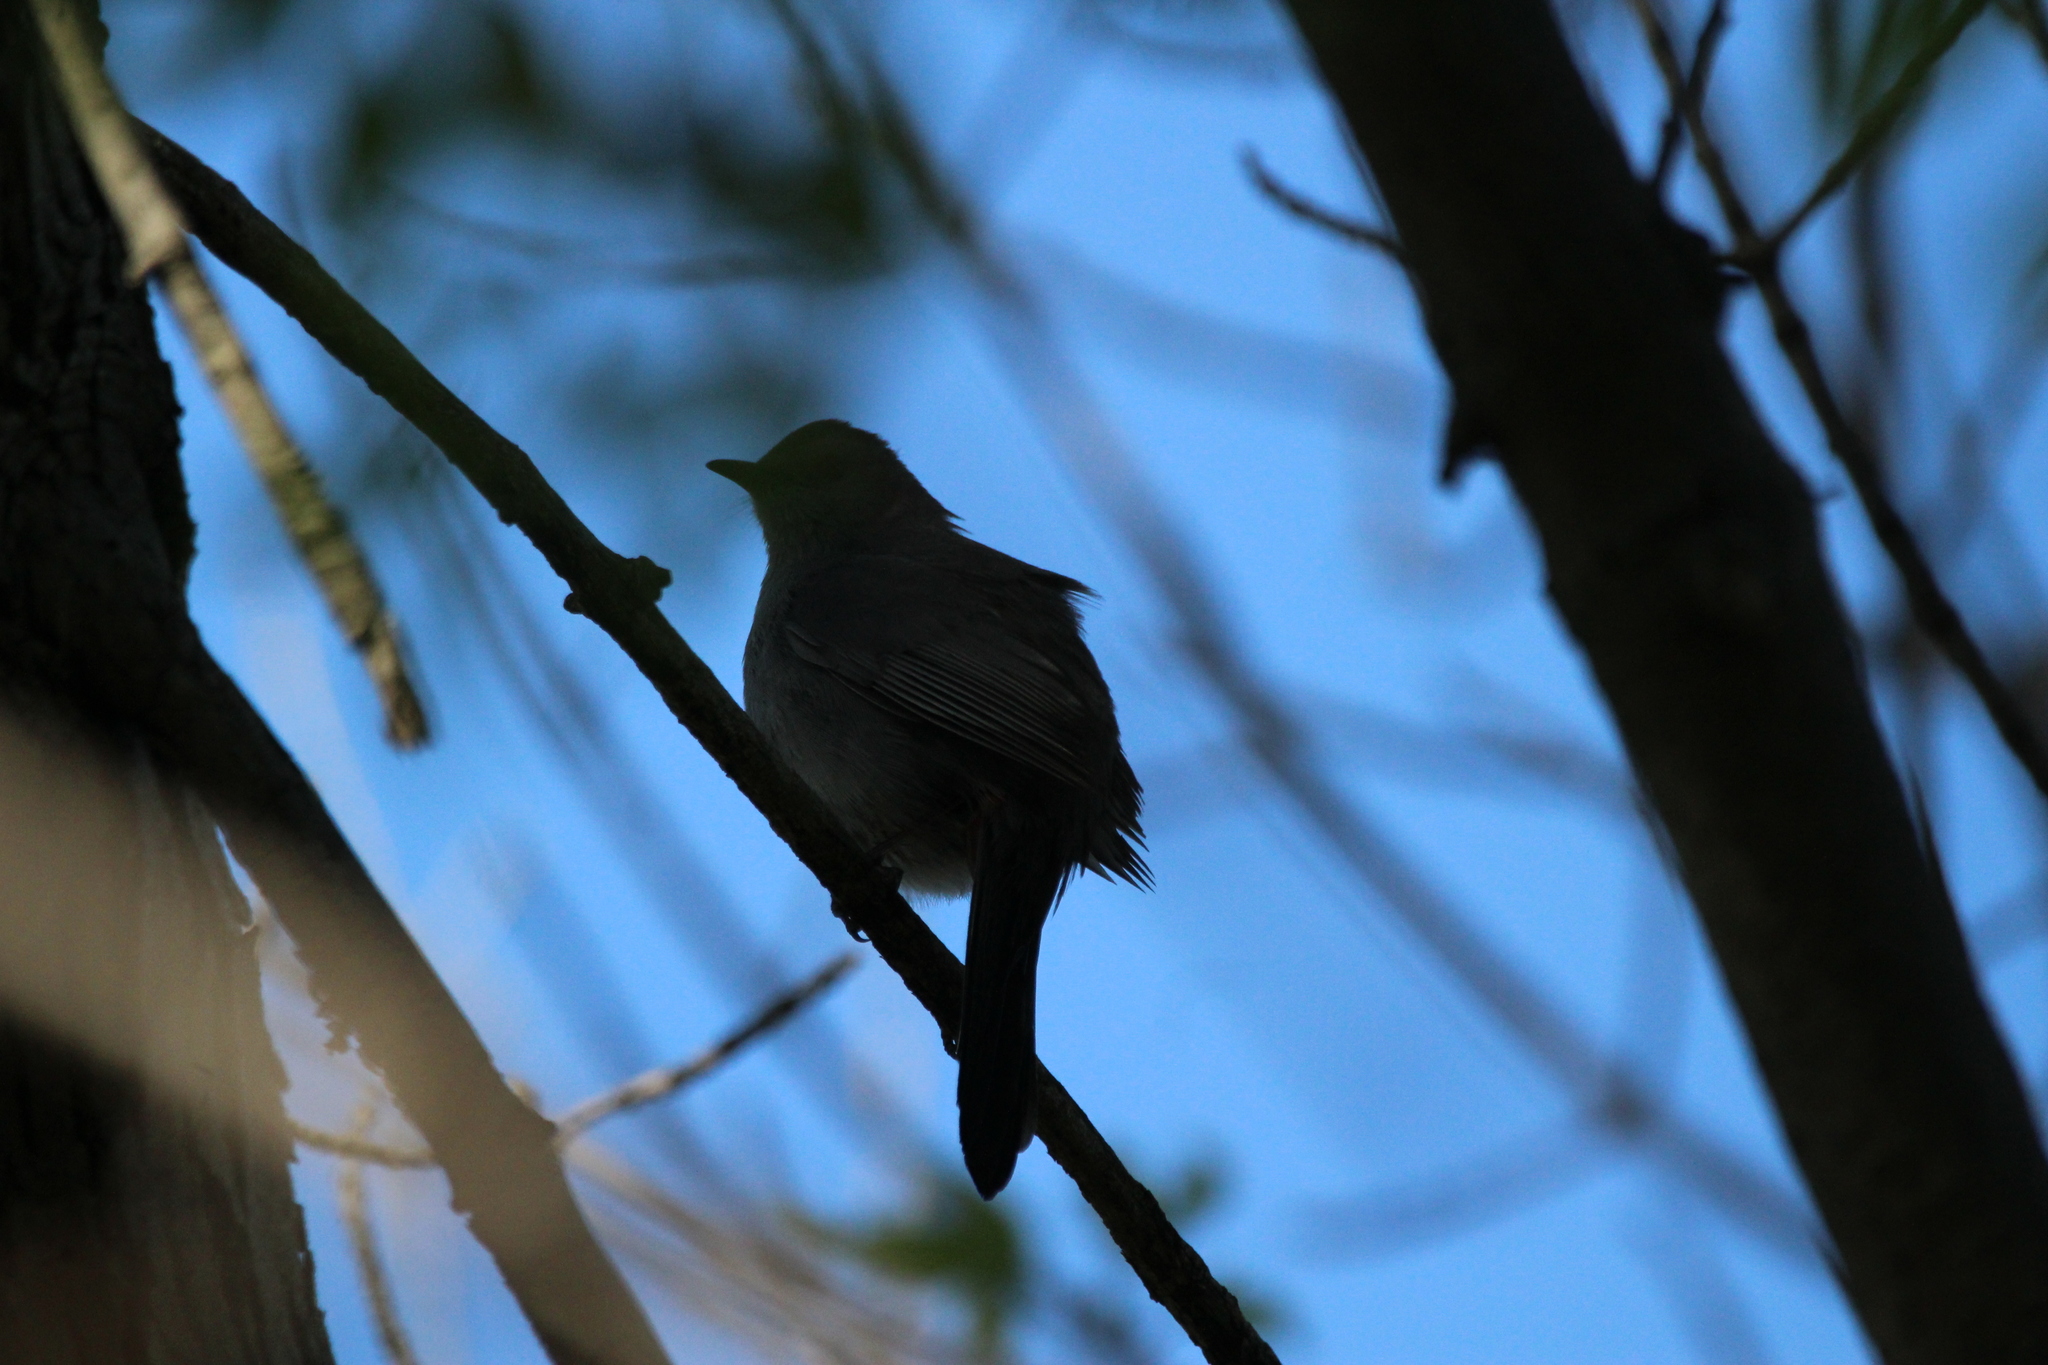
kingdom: Animalia
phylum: Chordata
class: Aves
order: Passeriformes
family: Mimidae
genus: Dumetella
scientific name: Dumetella carolinensis
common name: Gray catbird
